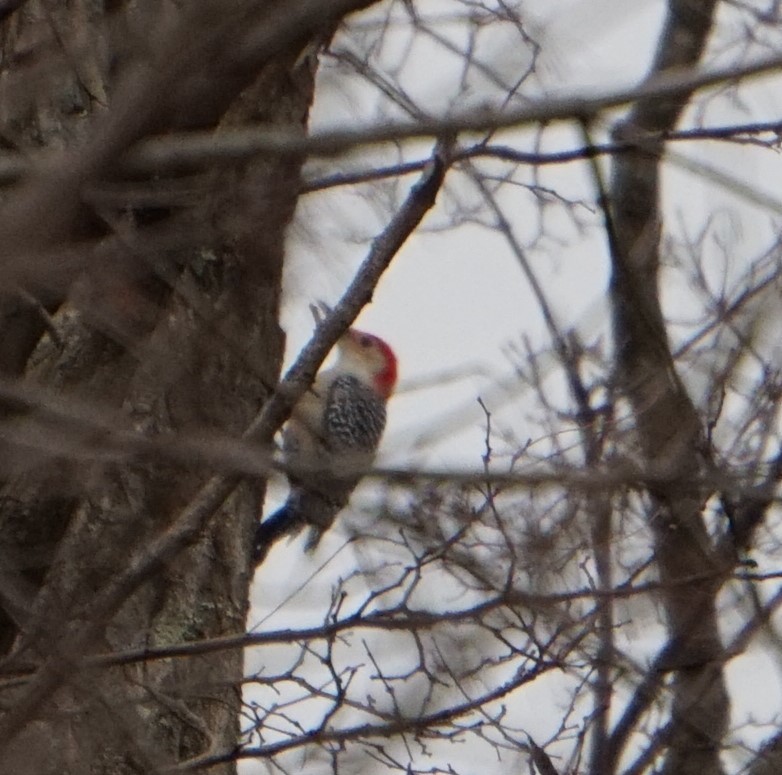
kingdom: Animalia
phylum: Chordata
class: Aves
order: Piciformes
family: Picidae
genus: Melanerpes
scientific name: Melanerpes carolinus
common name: Red-bellied woodpecker
